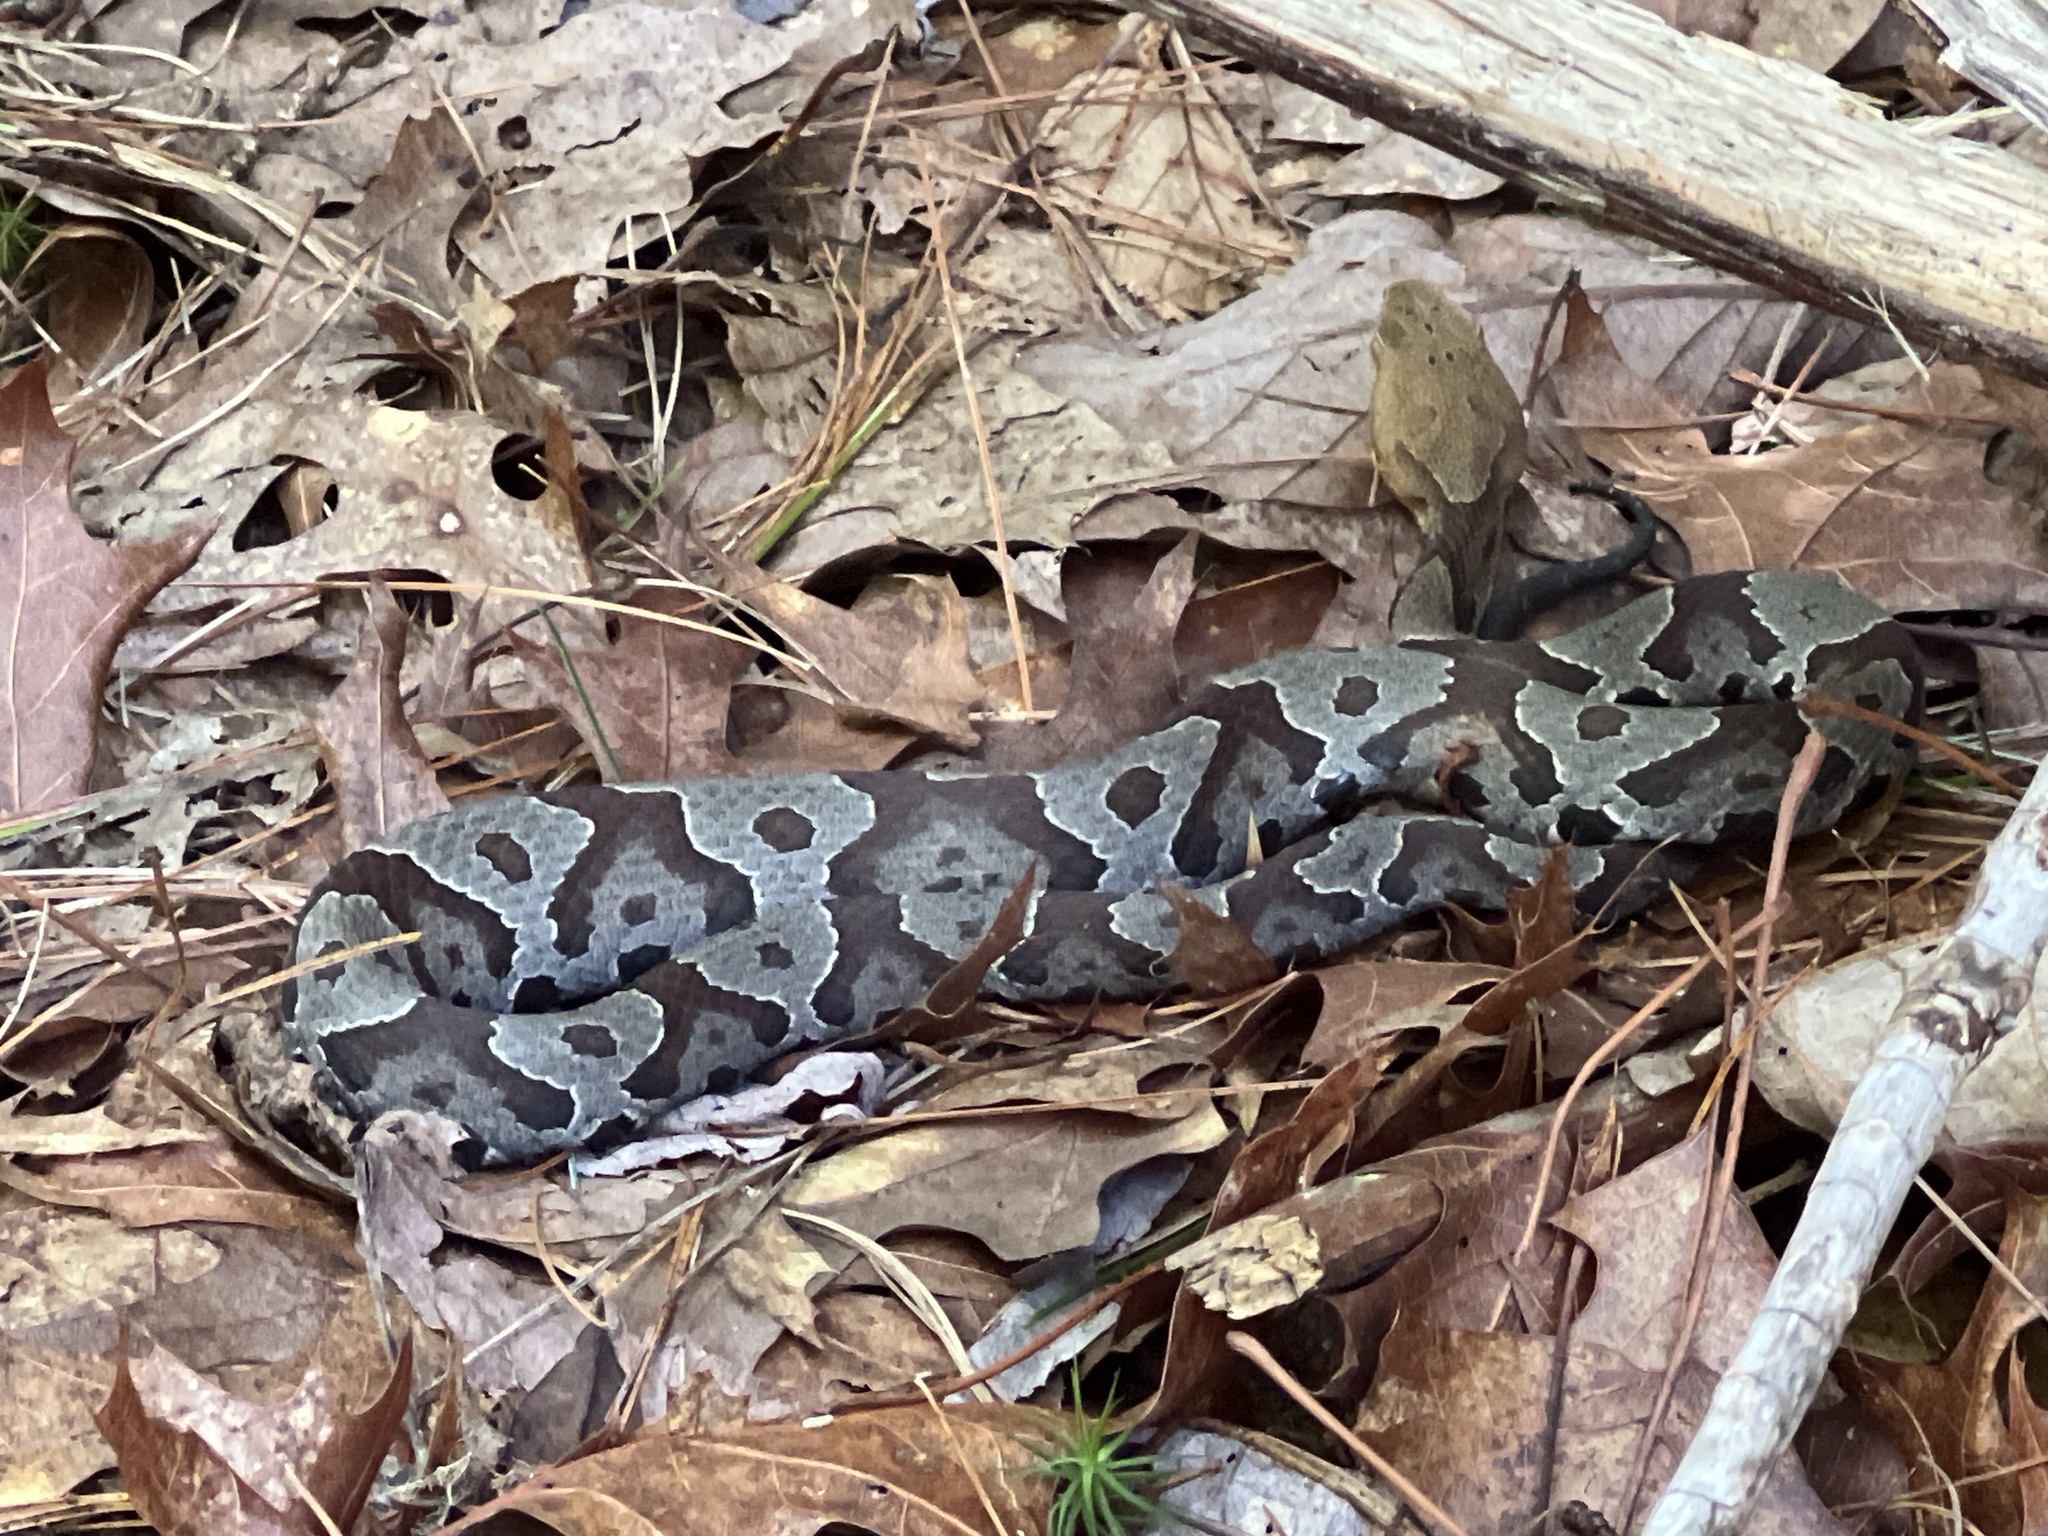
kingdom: Animalia
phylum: Chordata
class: Squamata
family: Viperidae
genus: Agkistrodon
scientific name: Agkistrodon contortrix
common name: Northern copperhead
